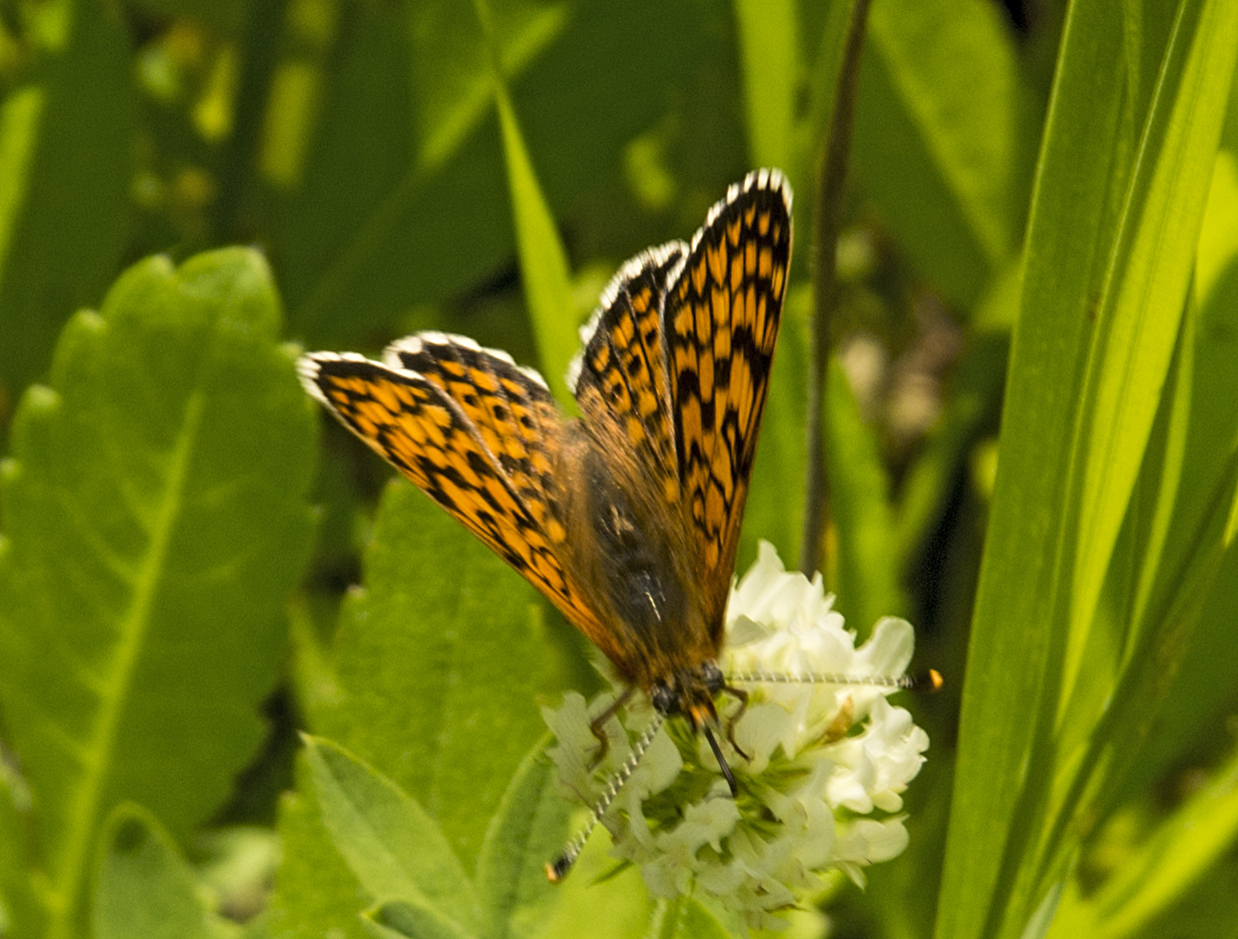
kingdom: Animalia
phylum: Arthropoda
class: Insecta
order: Lepidoptera
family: Nymphalidae
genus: Melitaea
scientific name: Melitaea cinxia
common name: Glanville fritillary
